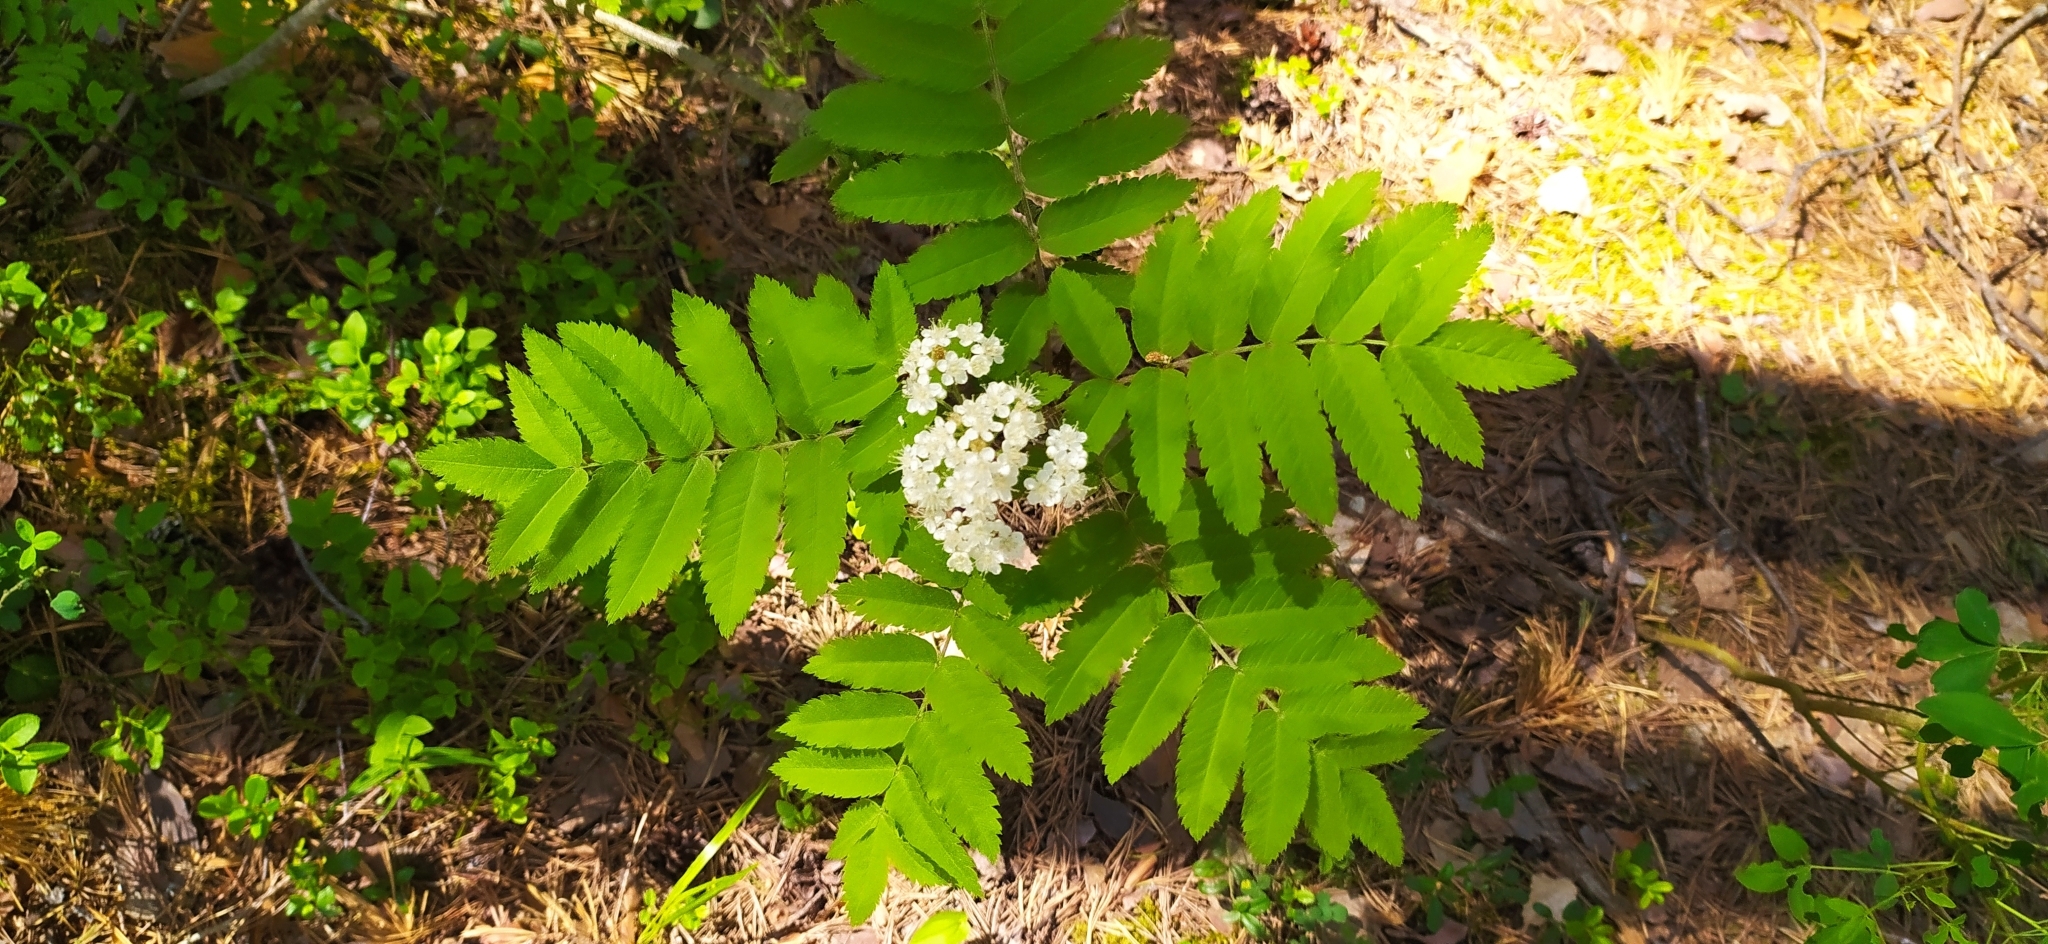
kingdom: Plantae
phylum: Tracheophyta
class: Magnoliopsida
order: Rosales
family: Rosaceae
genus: Sorbus
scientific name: Sorbus aucuparia
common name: Rowan
